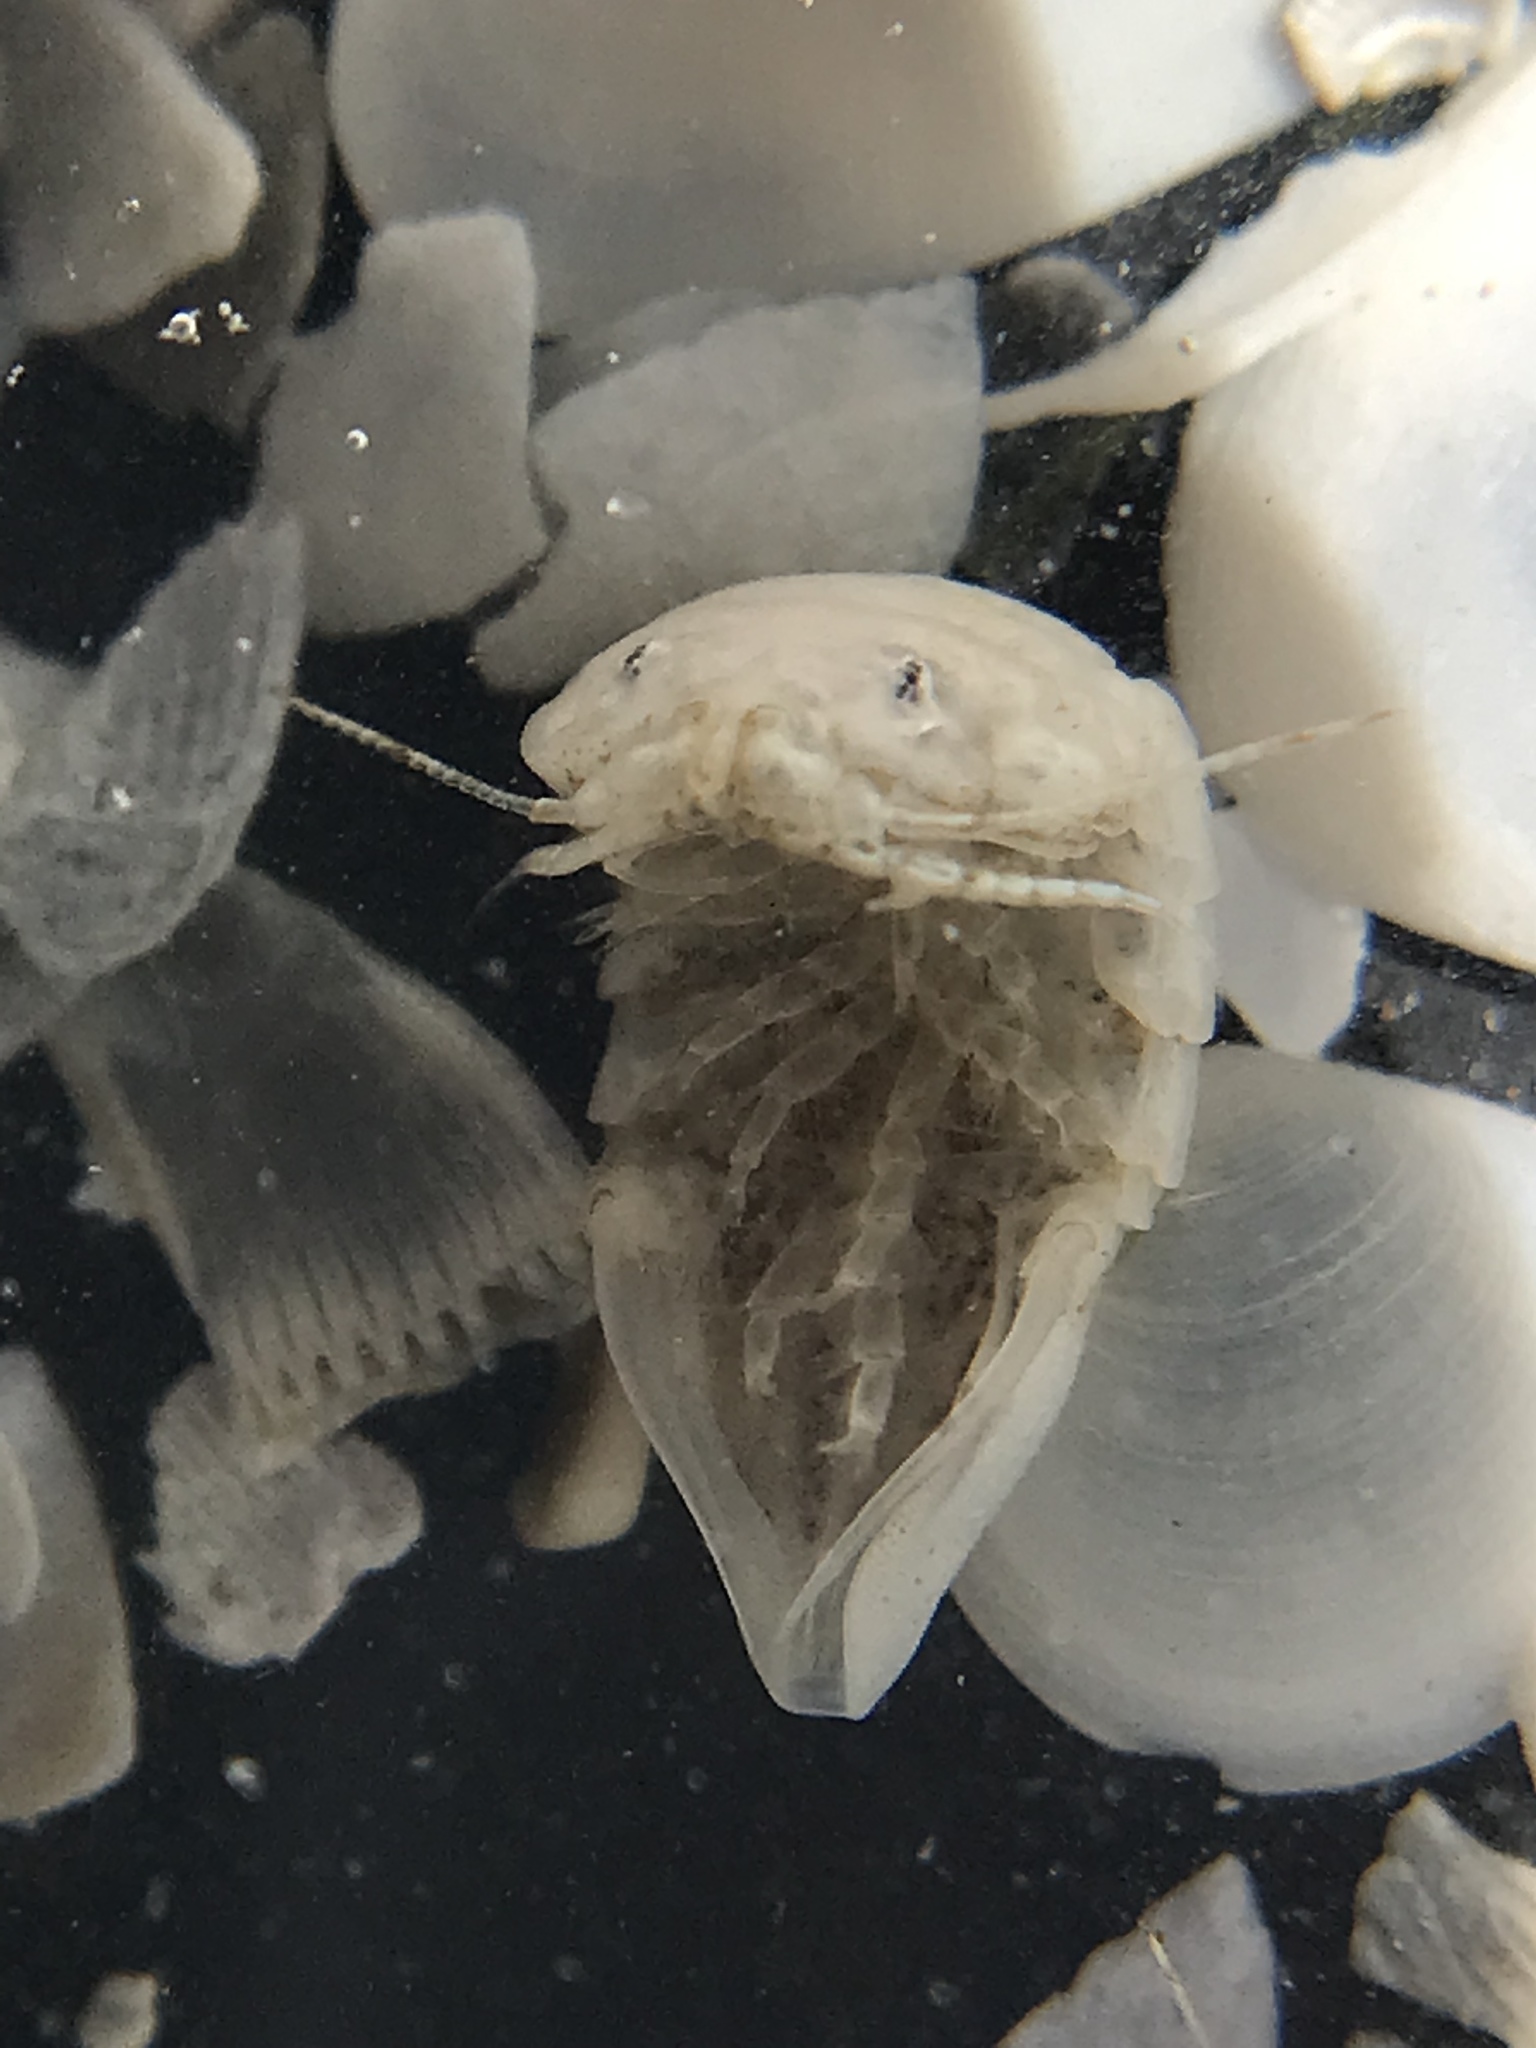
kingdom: Animalia
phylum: Arthropoda
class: Malacostraca
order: Isopoda
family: Ancinidae
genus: Ancinus
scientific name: Ancinus depressus
